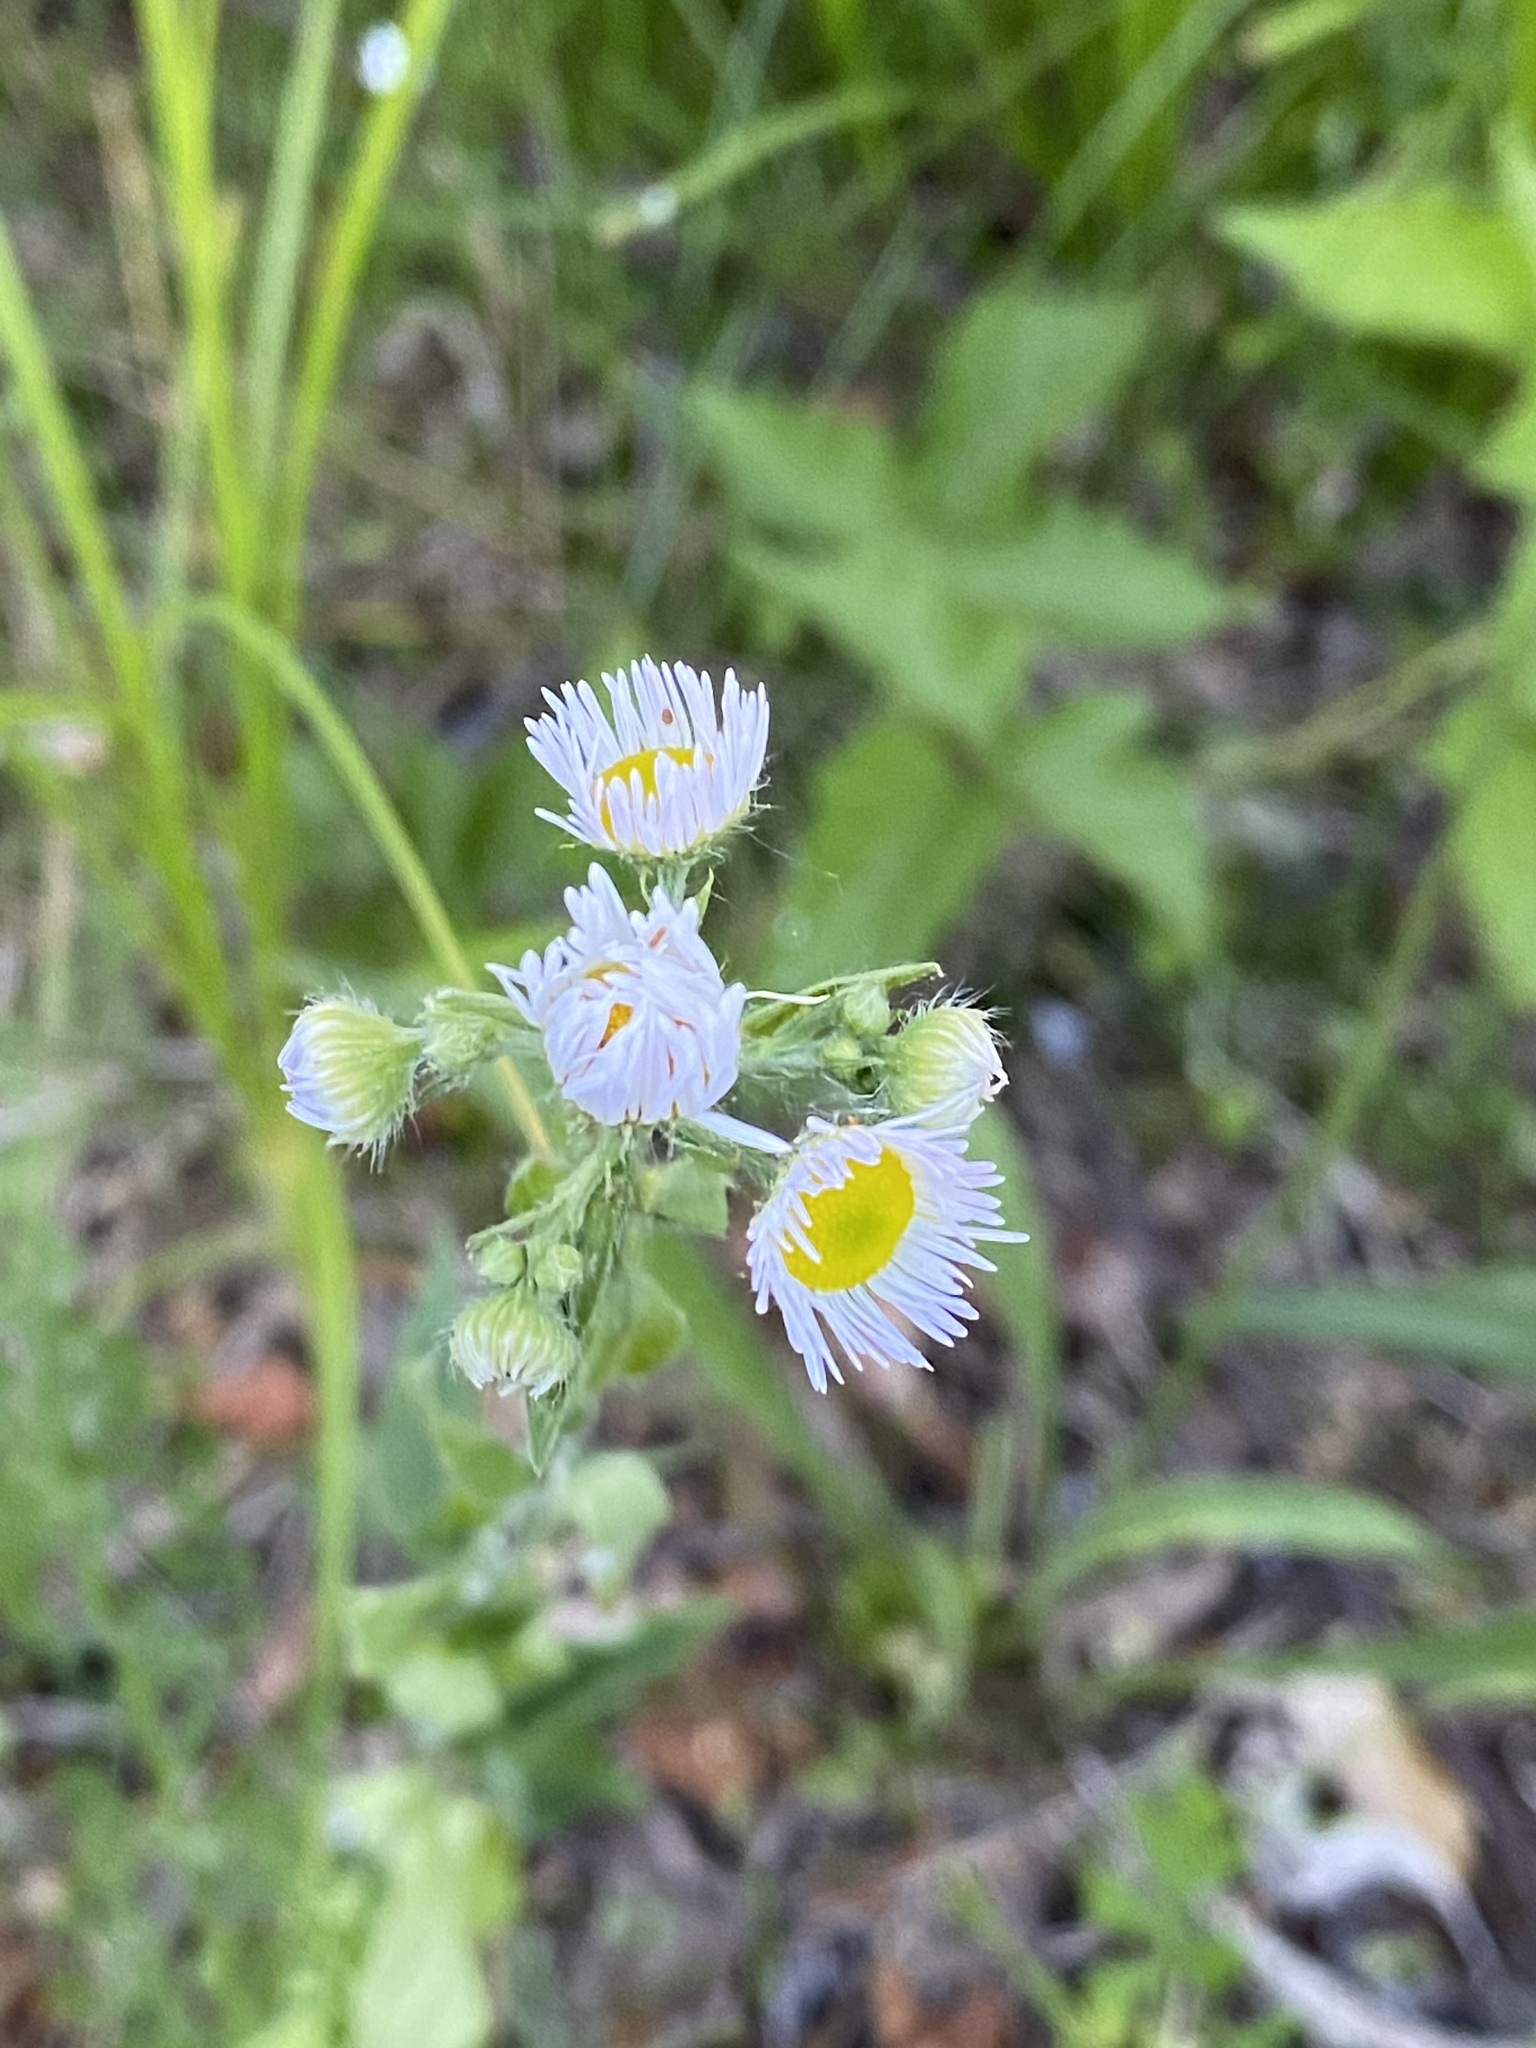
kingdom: Plantae
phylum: Tracheophyta
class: Magnoliopsida
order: Asterales
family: Asteraceae
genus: Erigeron
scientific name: Erigeron strigosus
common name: Common eastern fleabane
